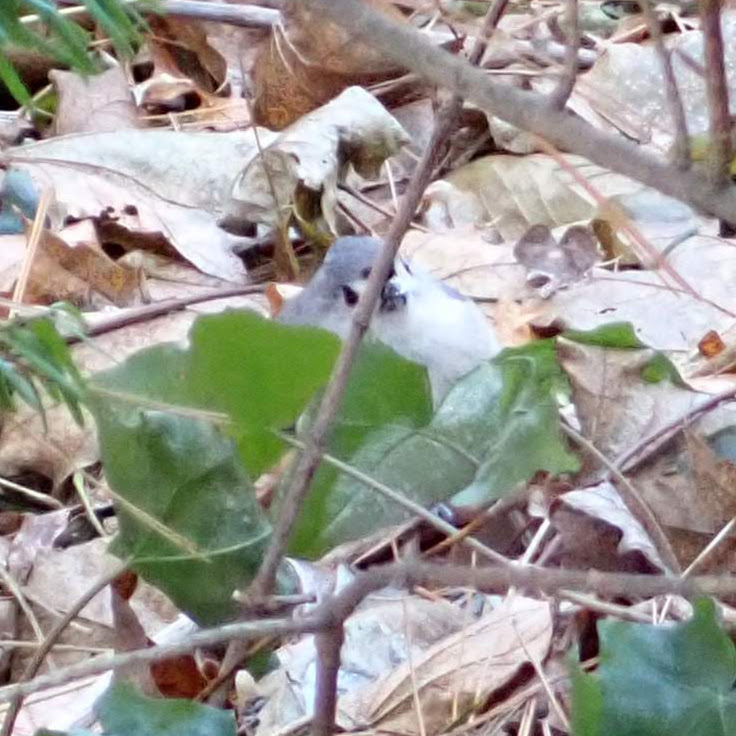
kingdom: Animalia
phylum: Chordata
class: Aves
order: Passeriformes
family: Paridae
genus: Baeolophus
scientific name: Baeolophus bicolor
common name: Tufted titmouse
